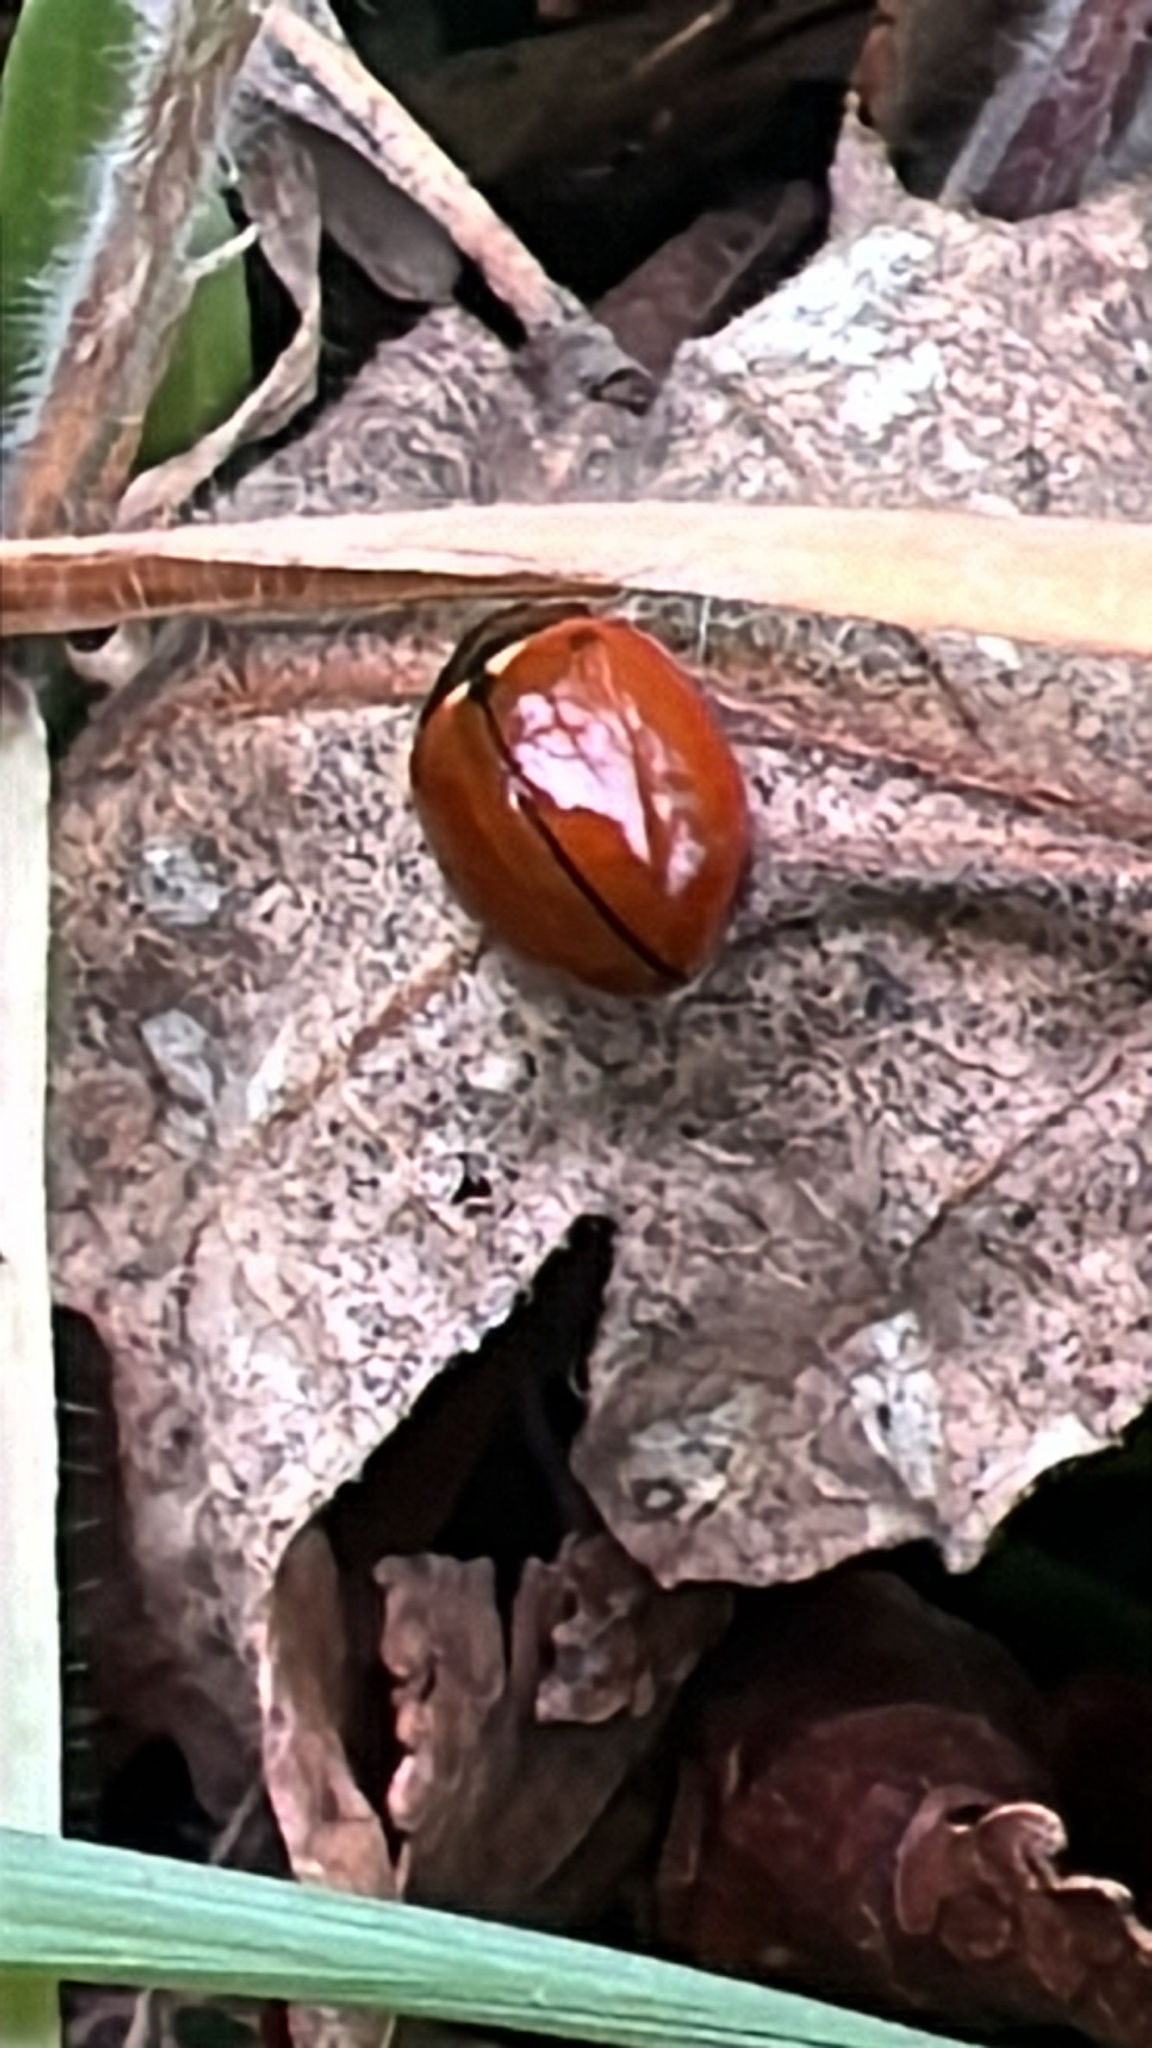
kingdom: Animalia
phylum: Arthropoda
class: Insecta
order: Coleoptera
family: Coccinellidae
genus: Coccinella
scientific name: Coccinella californica
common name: Lady beetle
